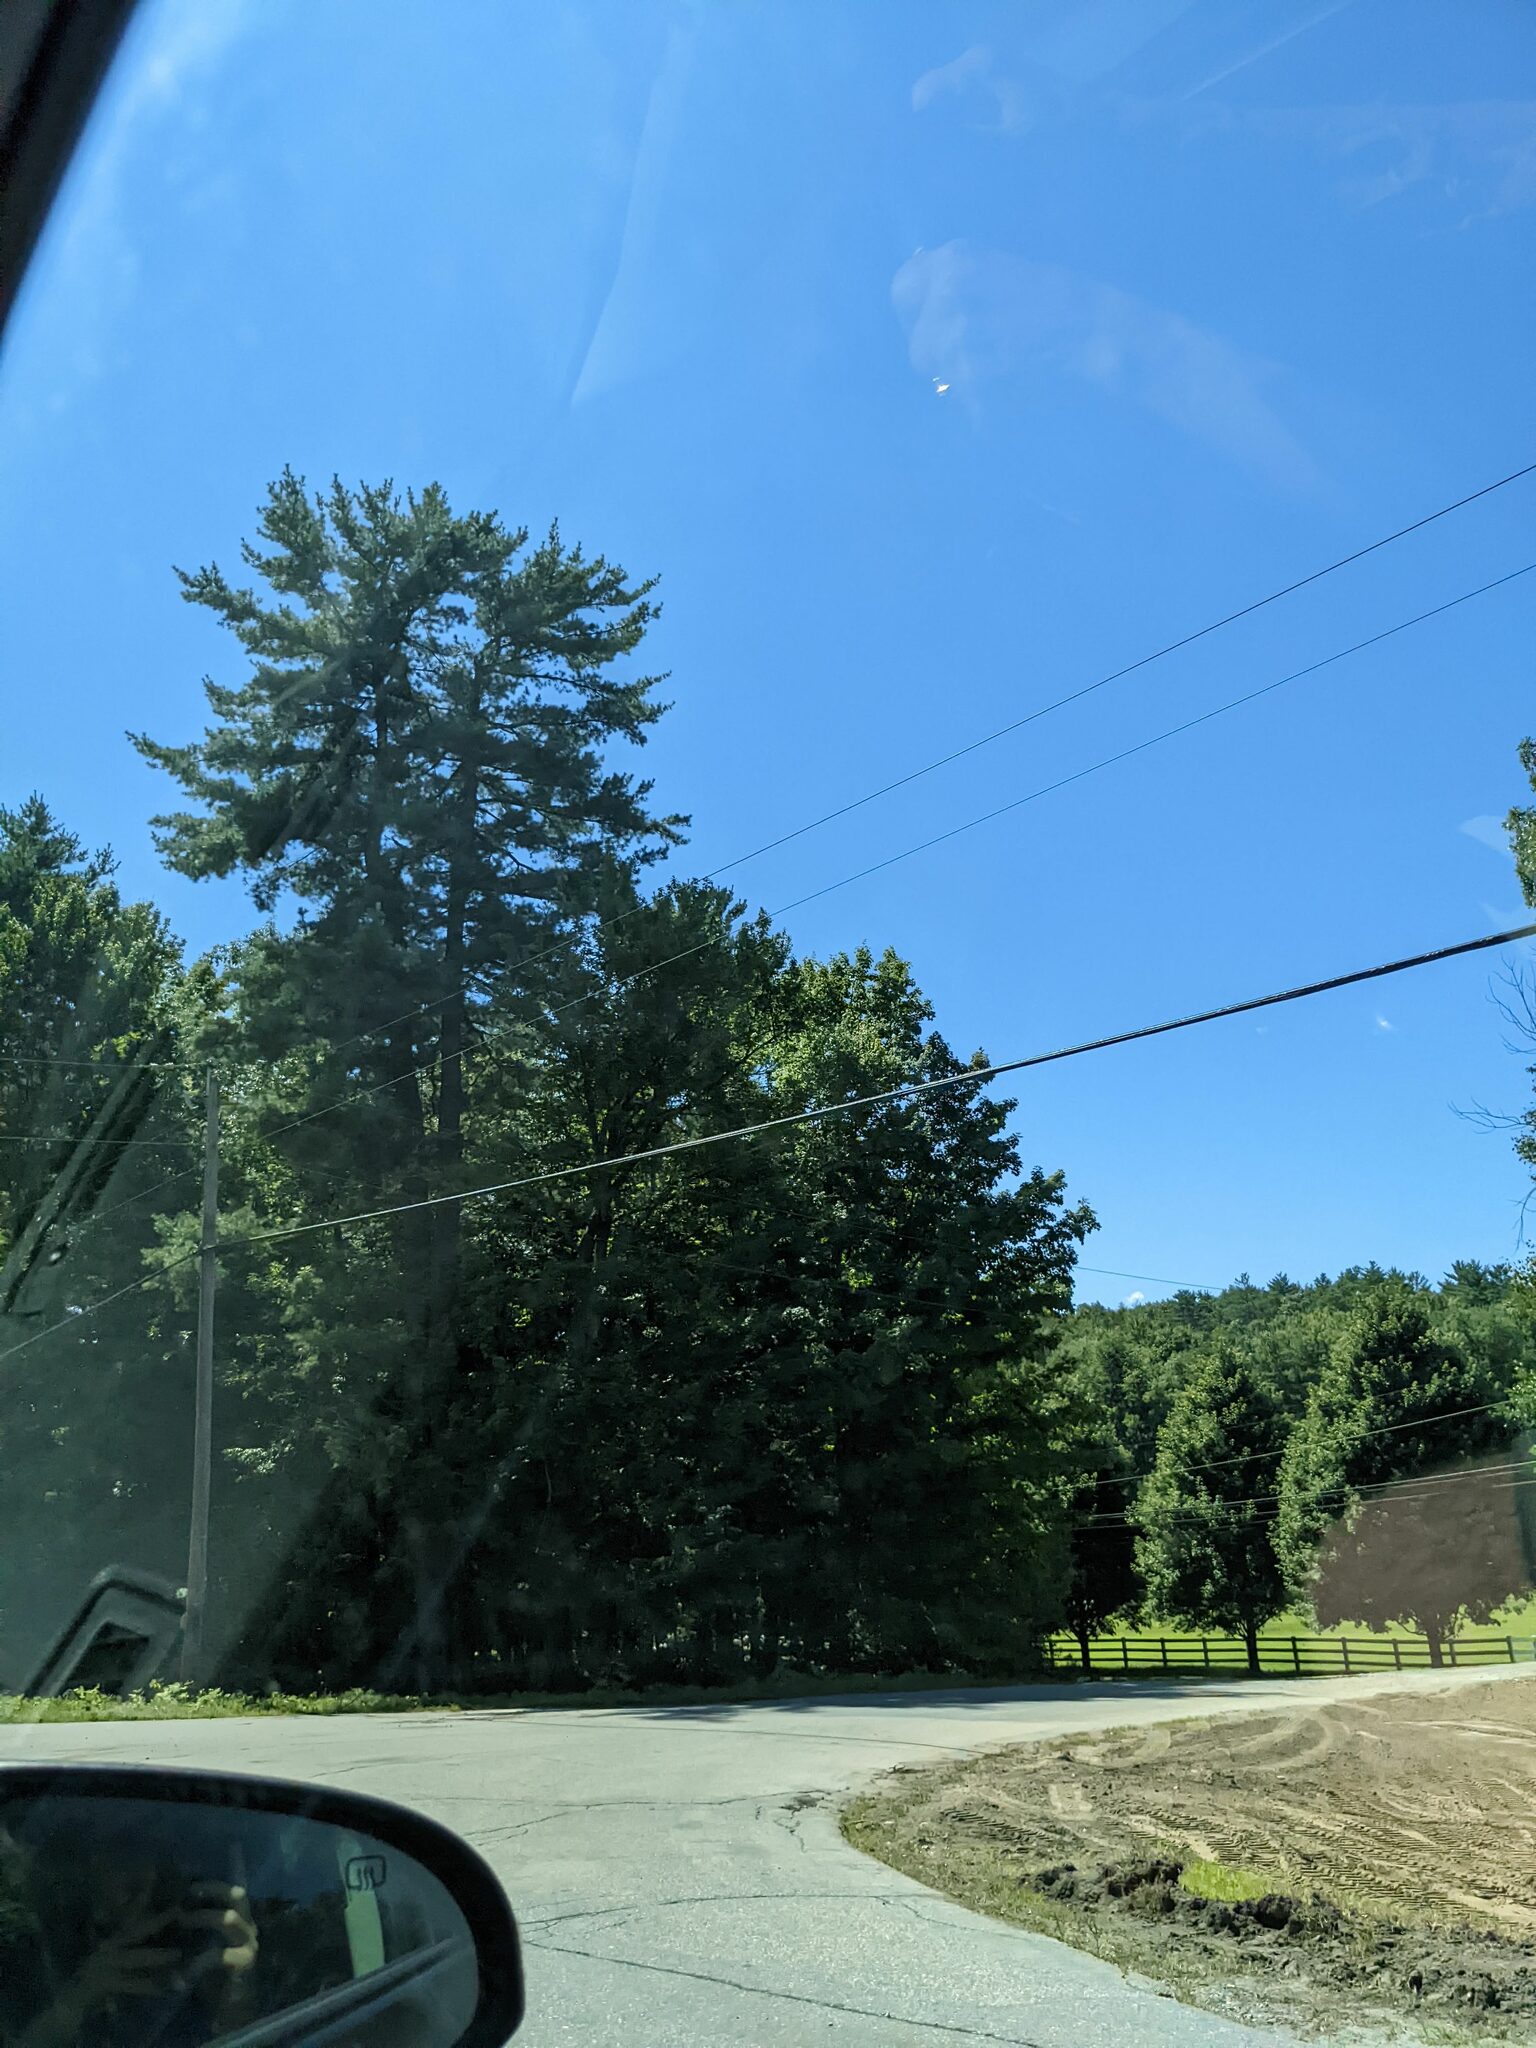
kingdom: Plantae
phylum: Tracheophyta
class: Pinopsida
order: Pinales
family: Pinaceae
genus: Pinus
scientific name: Pinus strobus
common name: Weymouth pine
